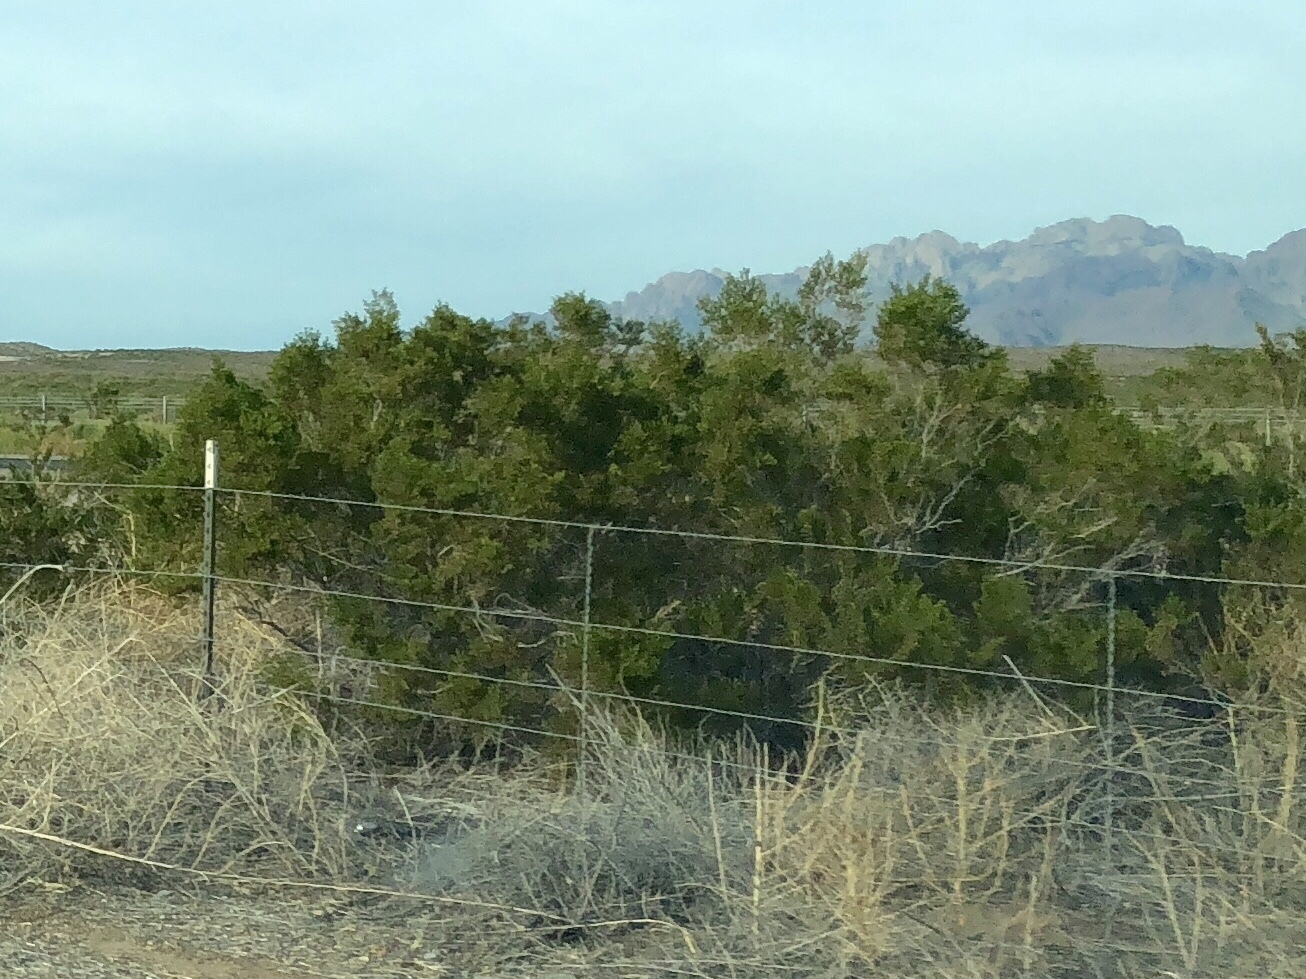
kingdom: Plantae
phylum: Tracheophyta
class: Magnoliopsida
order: Zygophyllales
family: Zygophyllaceae
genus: Larrea
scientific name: Larrea tridentata
